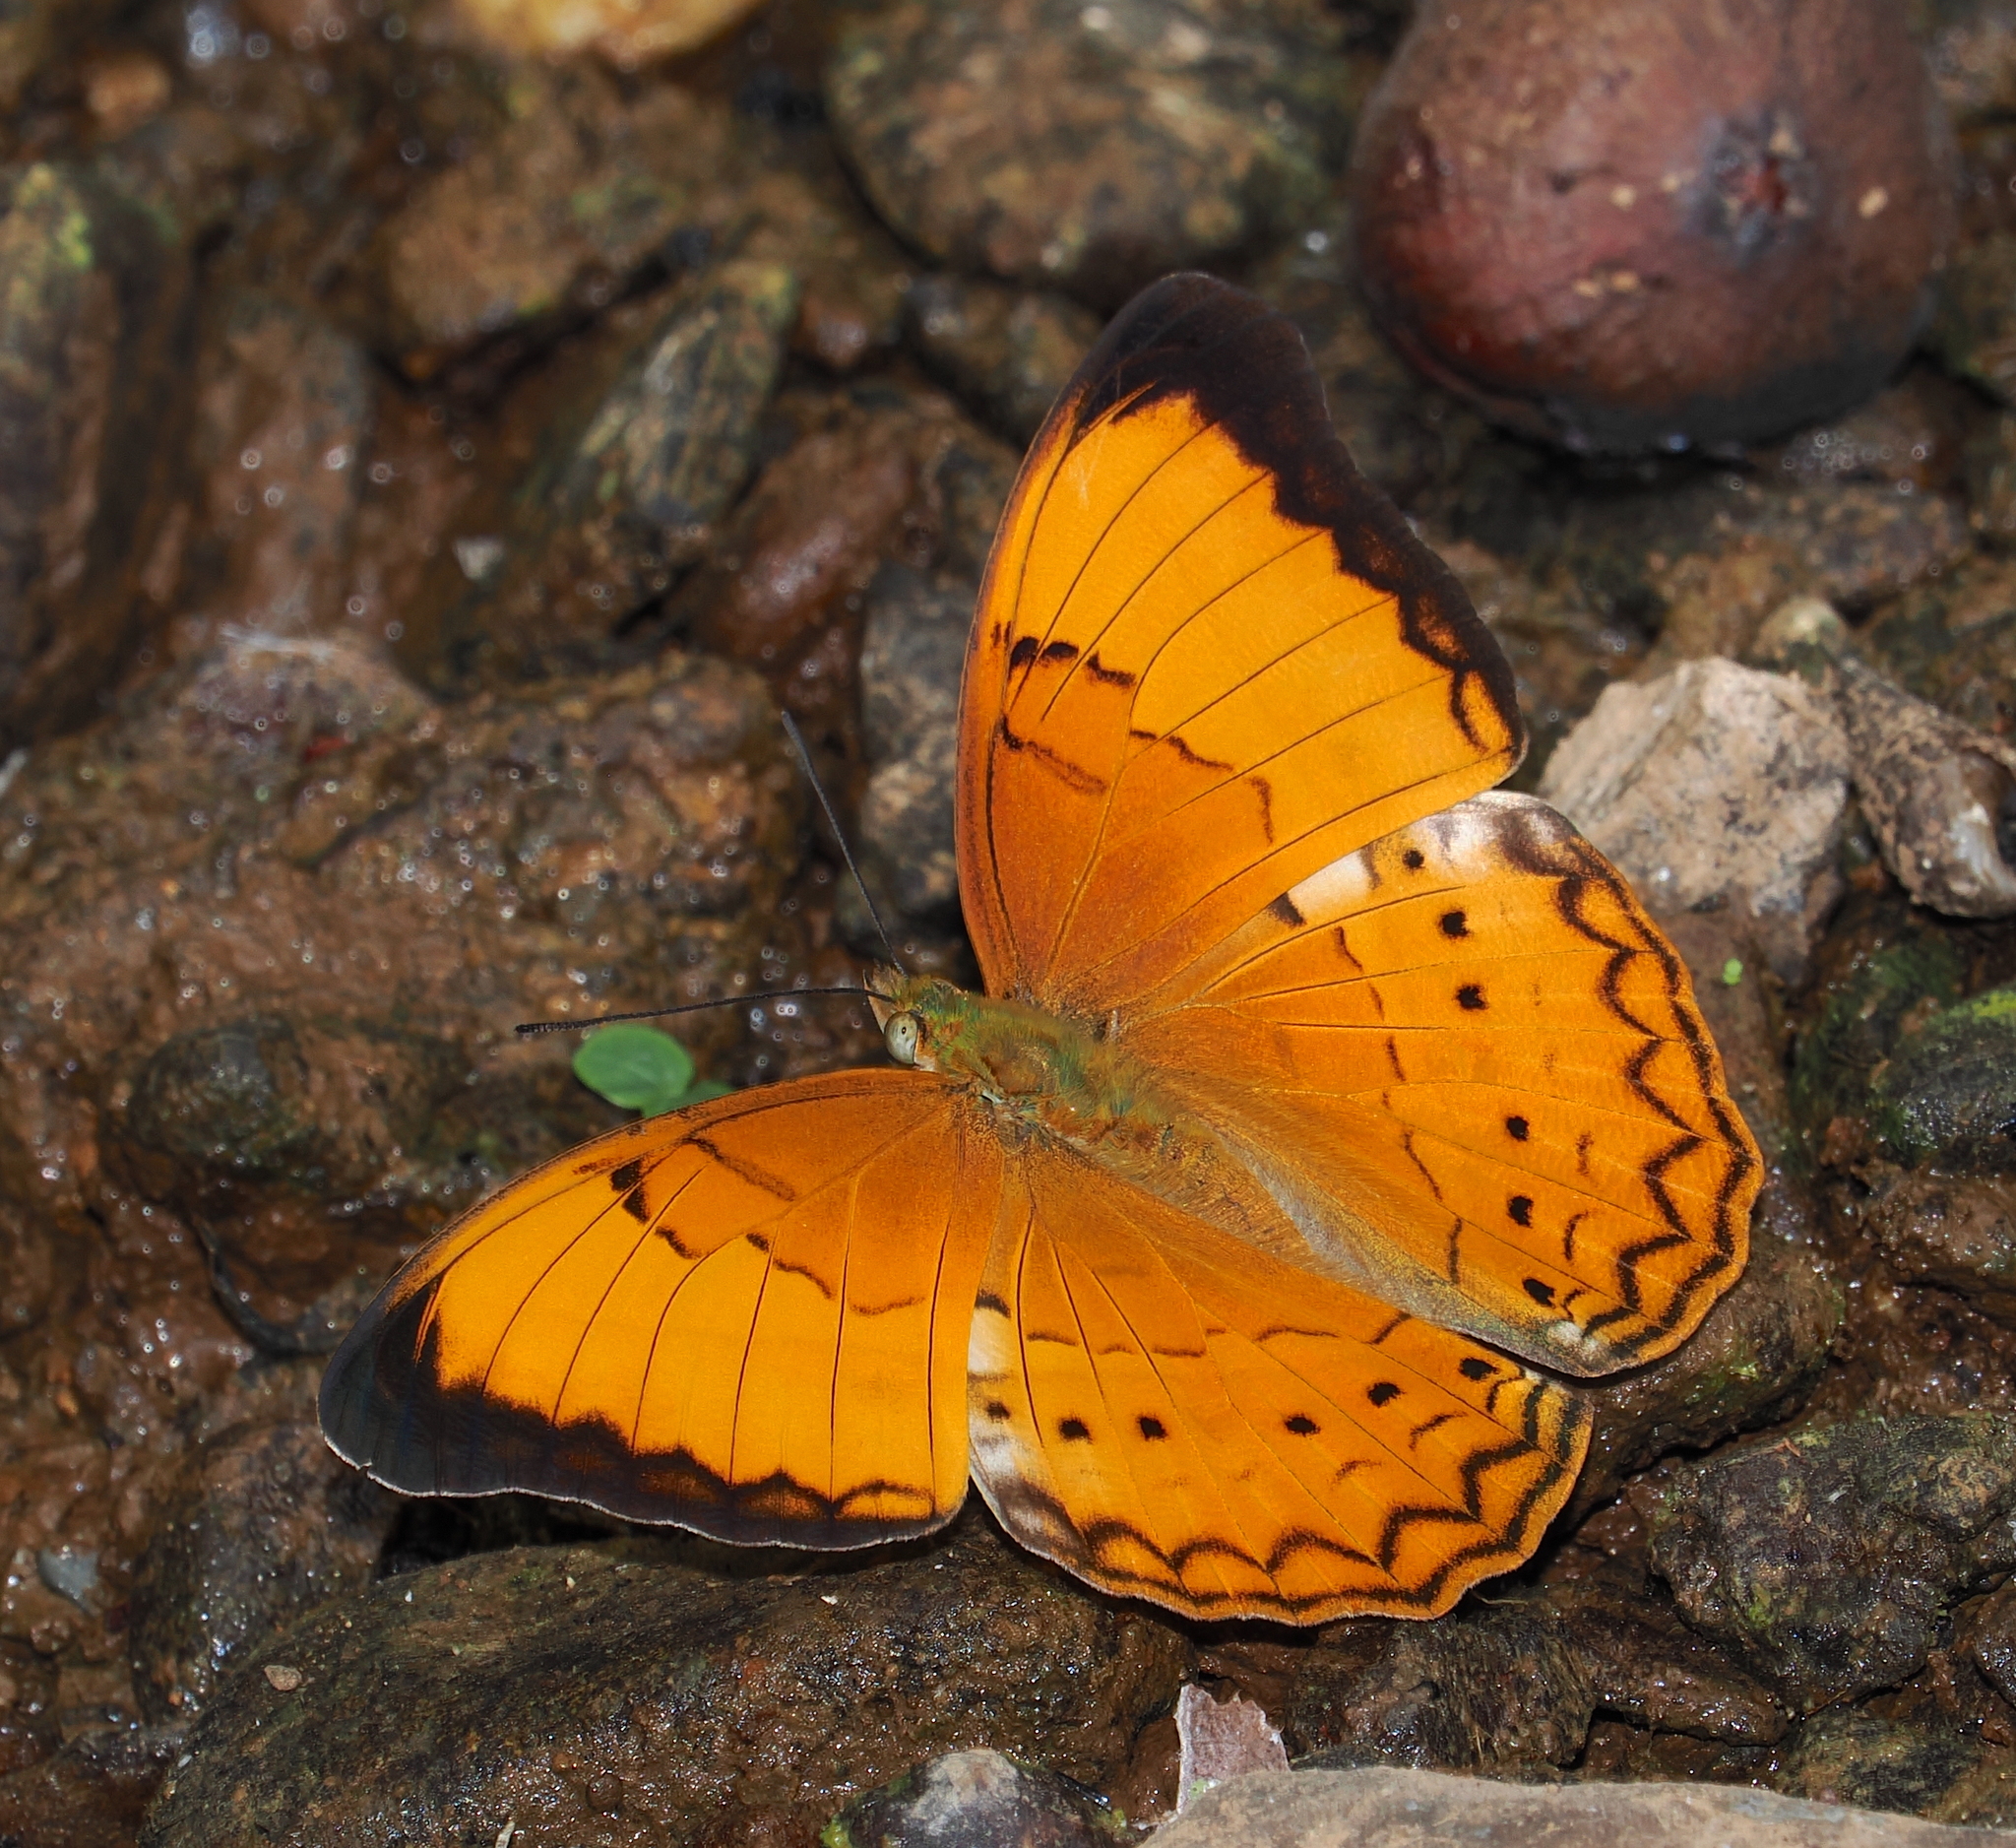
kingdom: Animalia
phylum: Arthropoda
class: Insecta
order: Lepidoptera
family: Nymphalidae
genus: Cirrochroa
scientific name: Cirrochroa aoris
